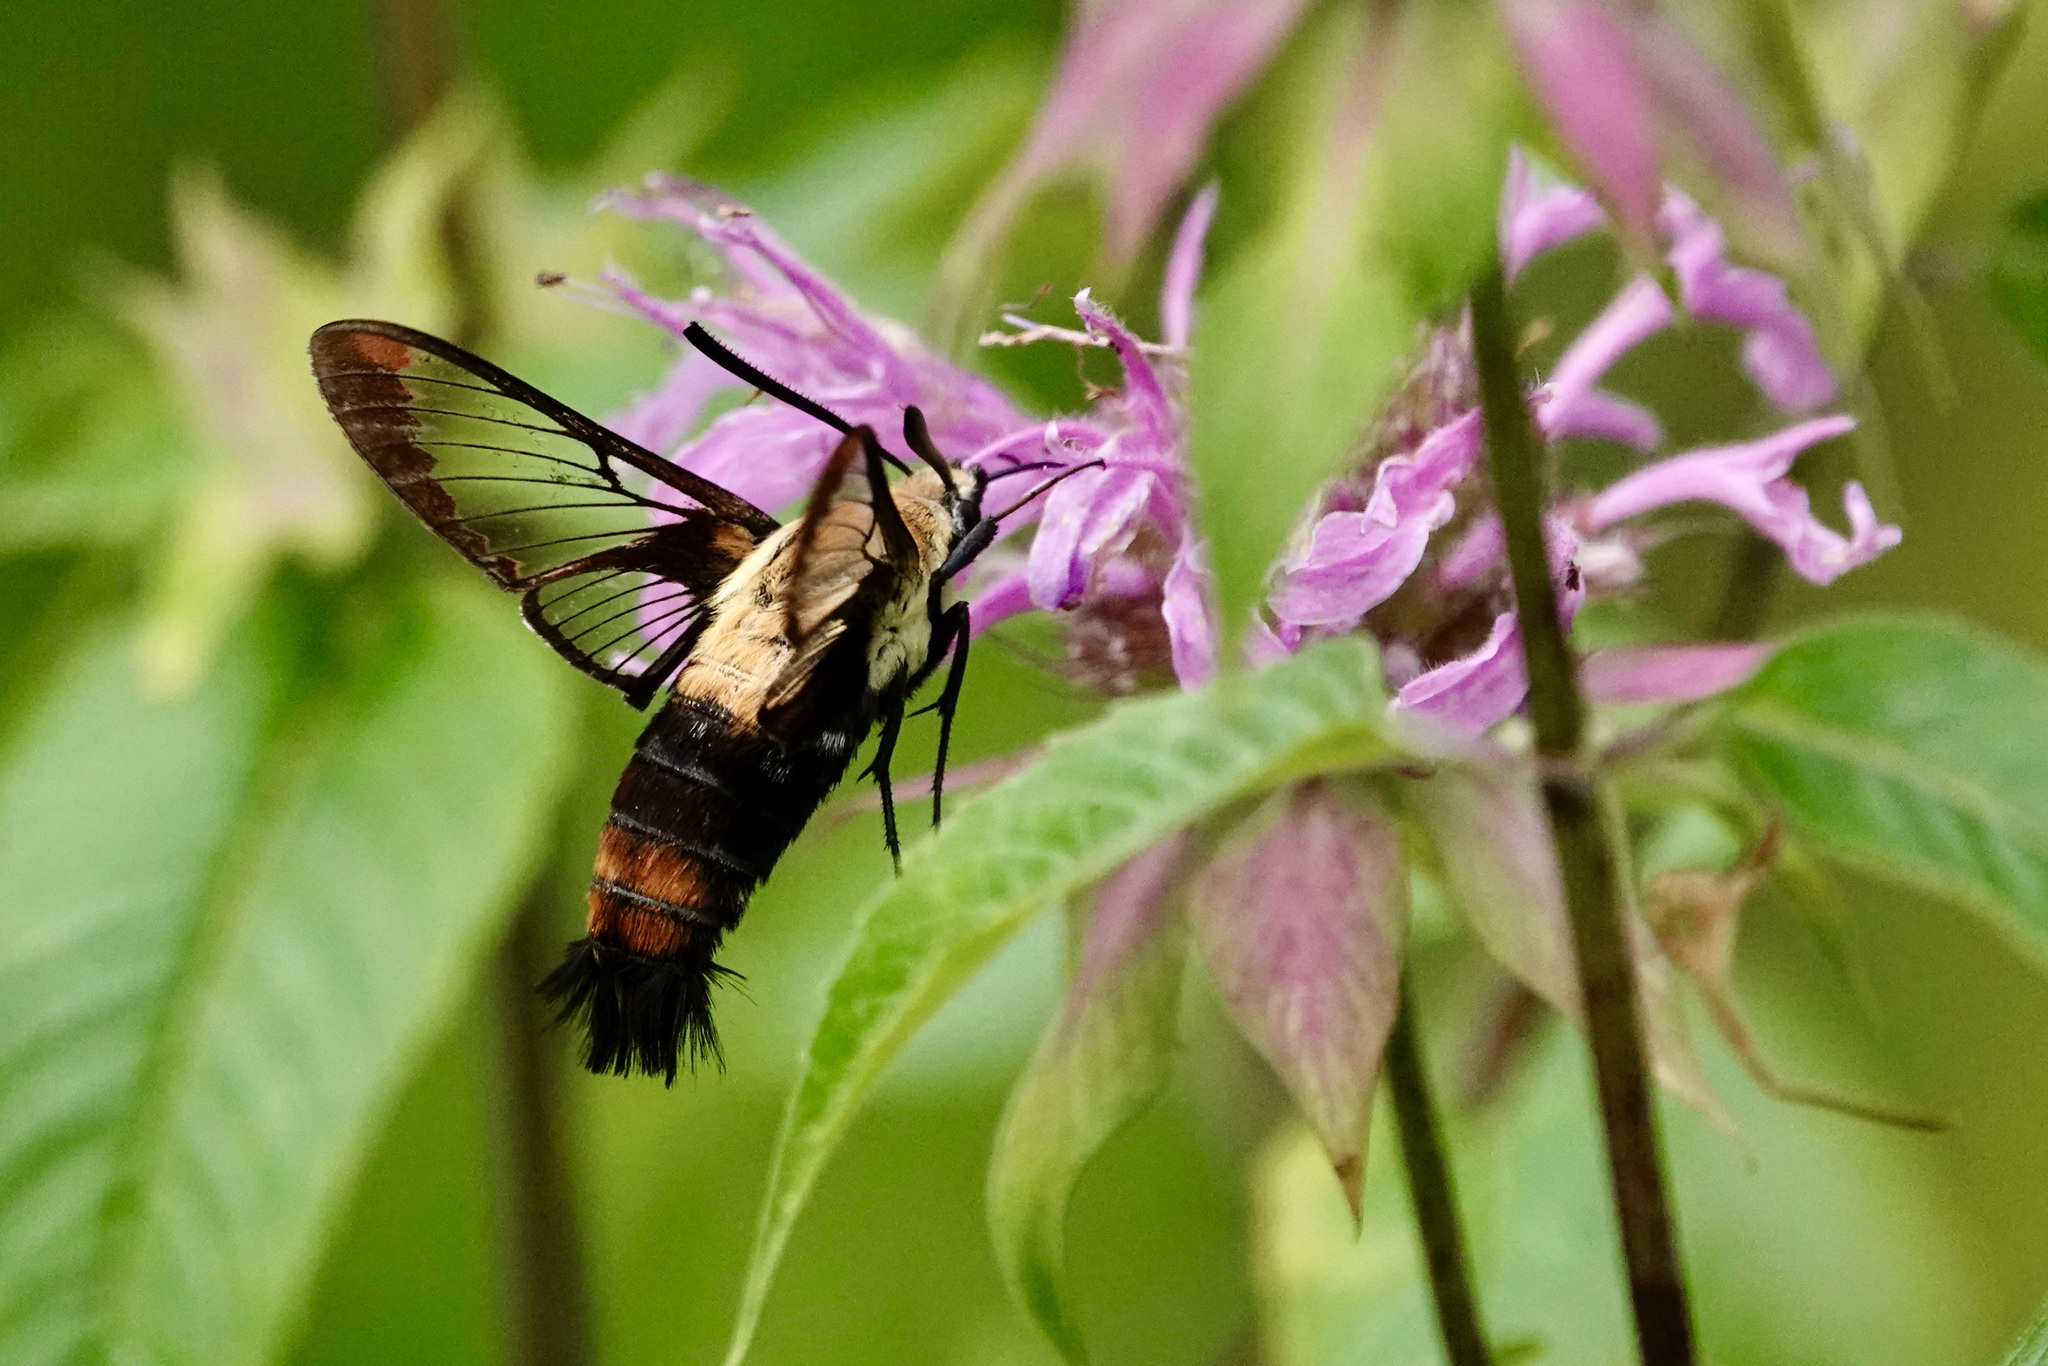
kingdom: Animalia
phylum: Arthropoda
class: Insecta
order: Lepidoptera
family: Sphingidae
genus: Hemaris
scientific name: Hemaris diffinis
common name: Bumblebee moth
